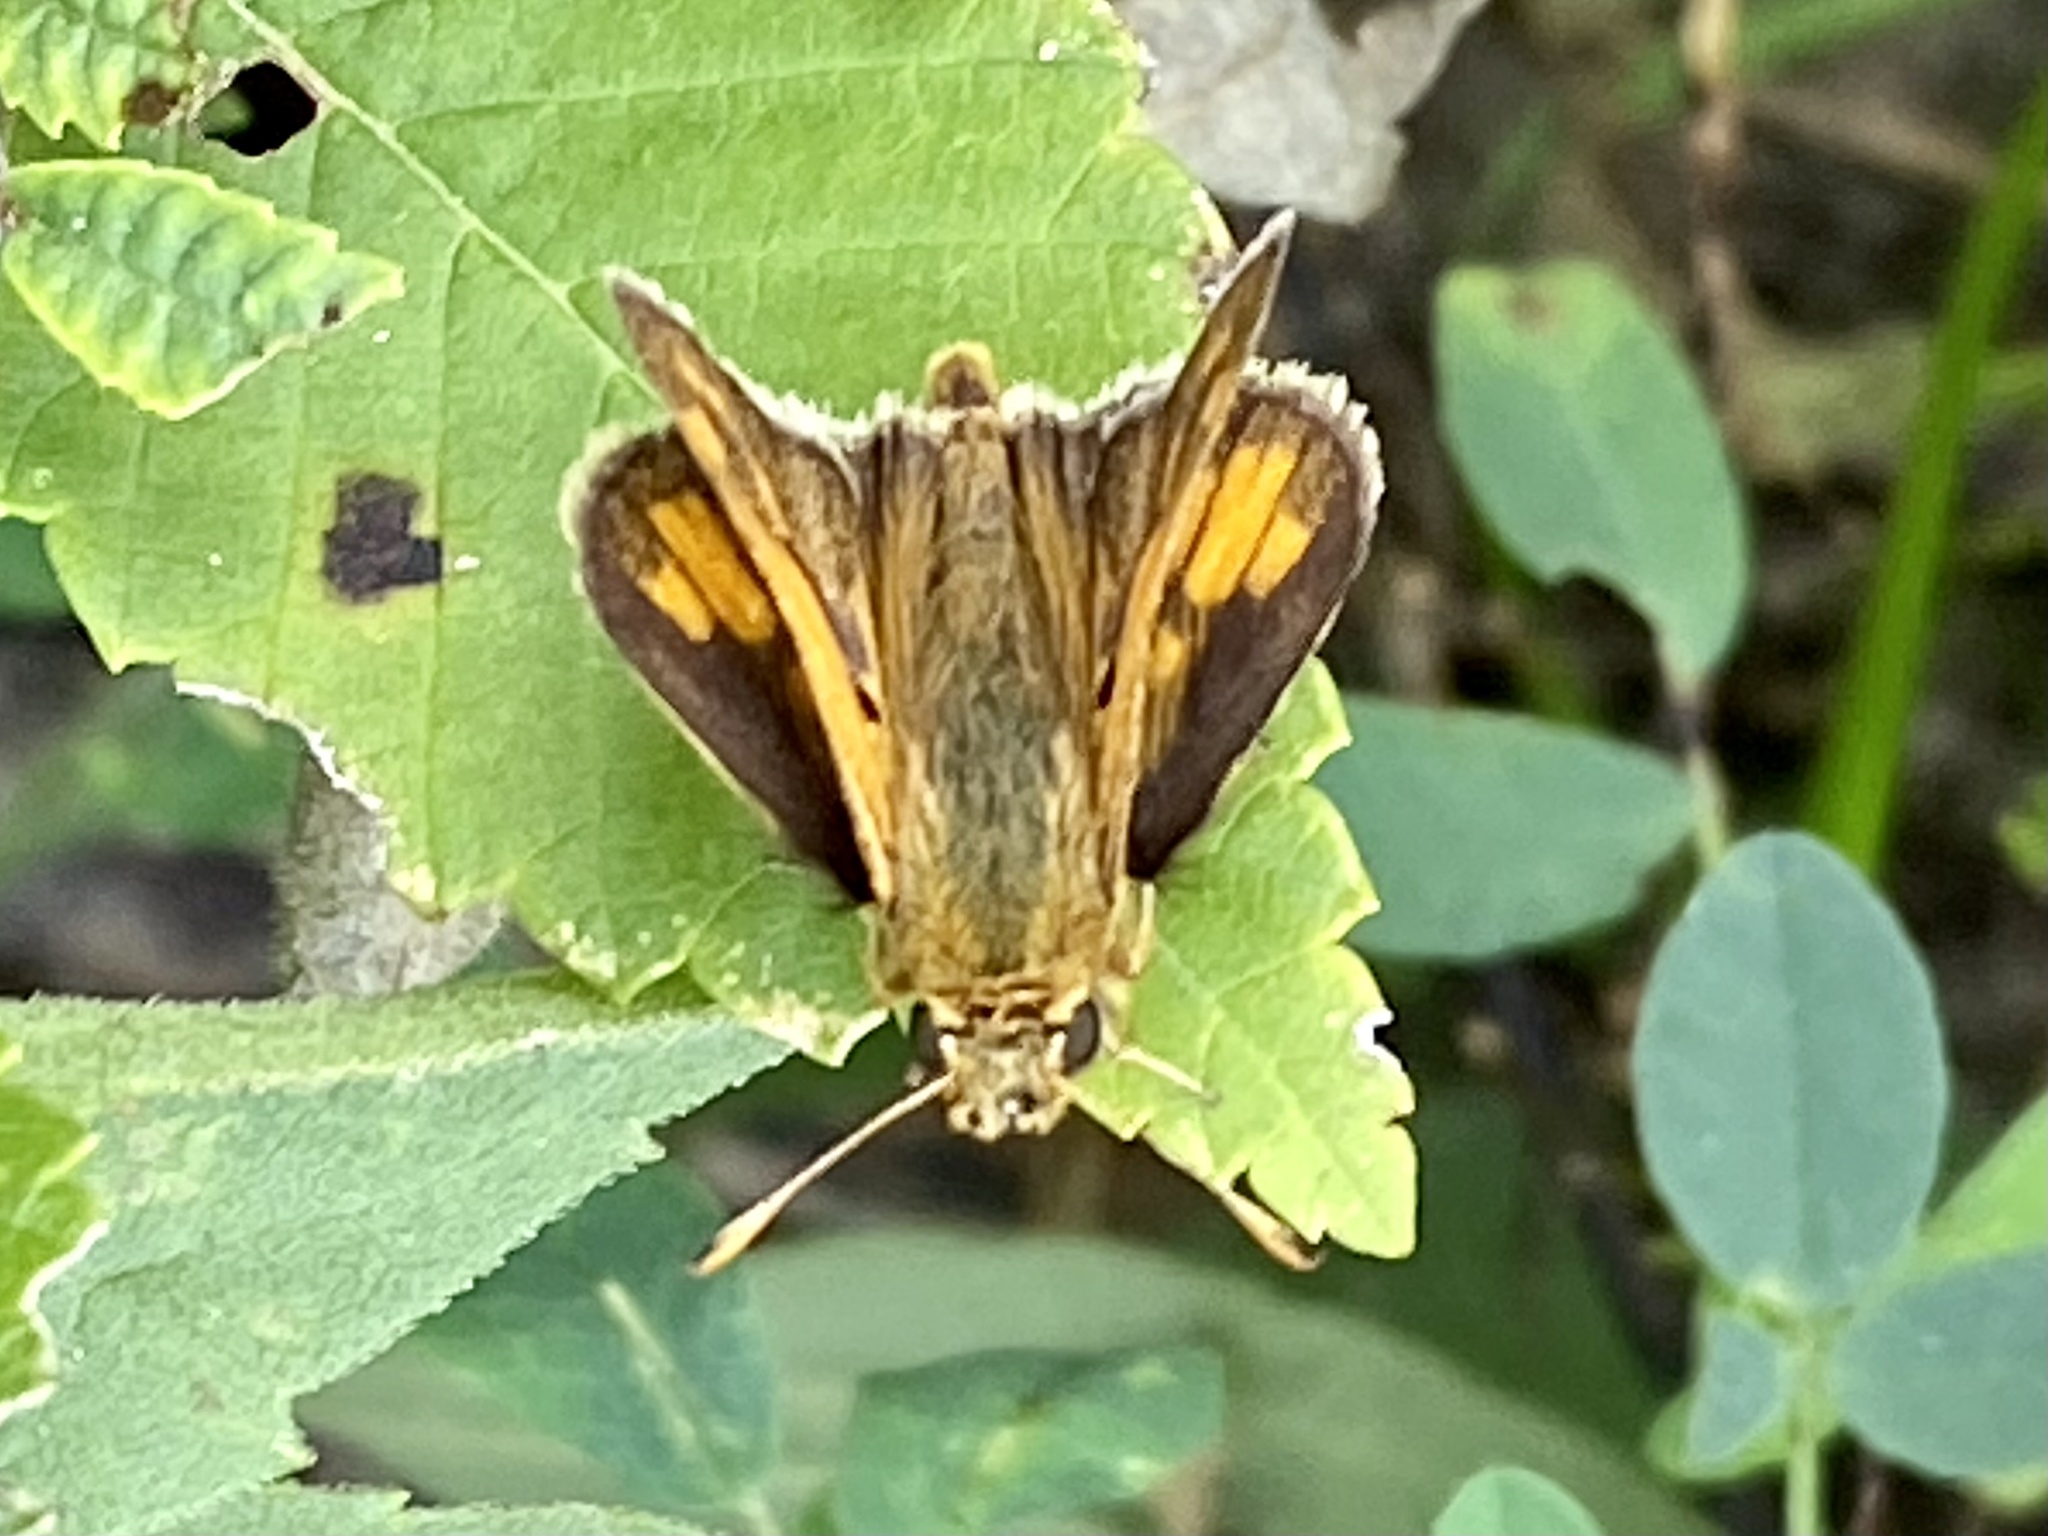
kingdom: Animalia
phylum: Arthropoda
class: Insecta
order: Lepidoptera
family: Hesperiidae
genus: Polites
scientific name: Polites coras
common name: Peck's skipper
